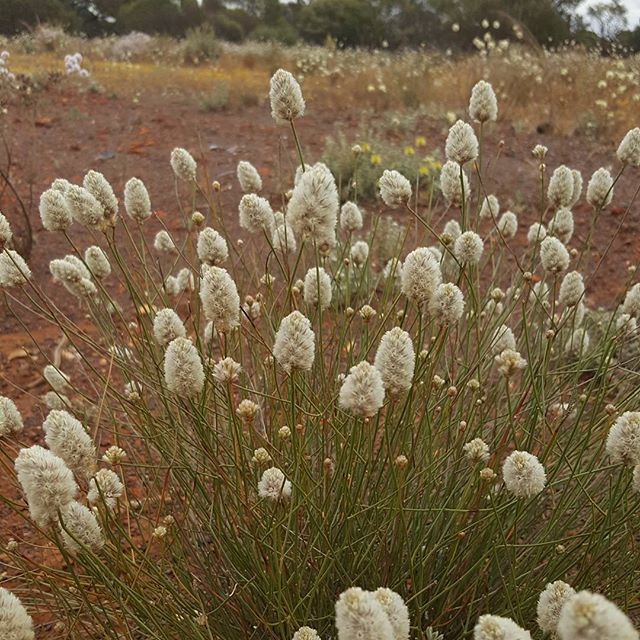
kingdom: Plantae
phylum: Tracheophyta
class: Magnoliopsida
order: Caryophyllales
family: Amaranthaceae
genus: Ptilotus
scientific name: Ptilotus schwartzii
